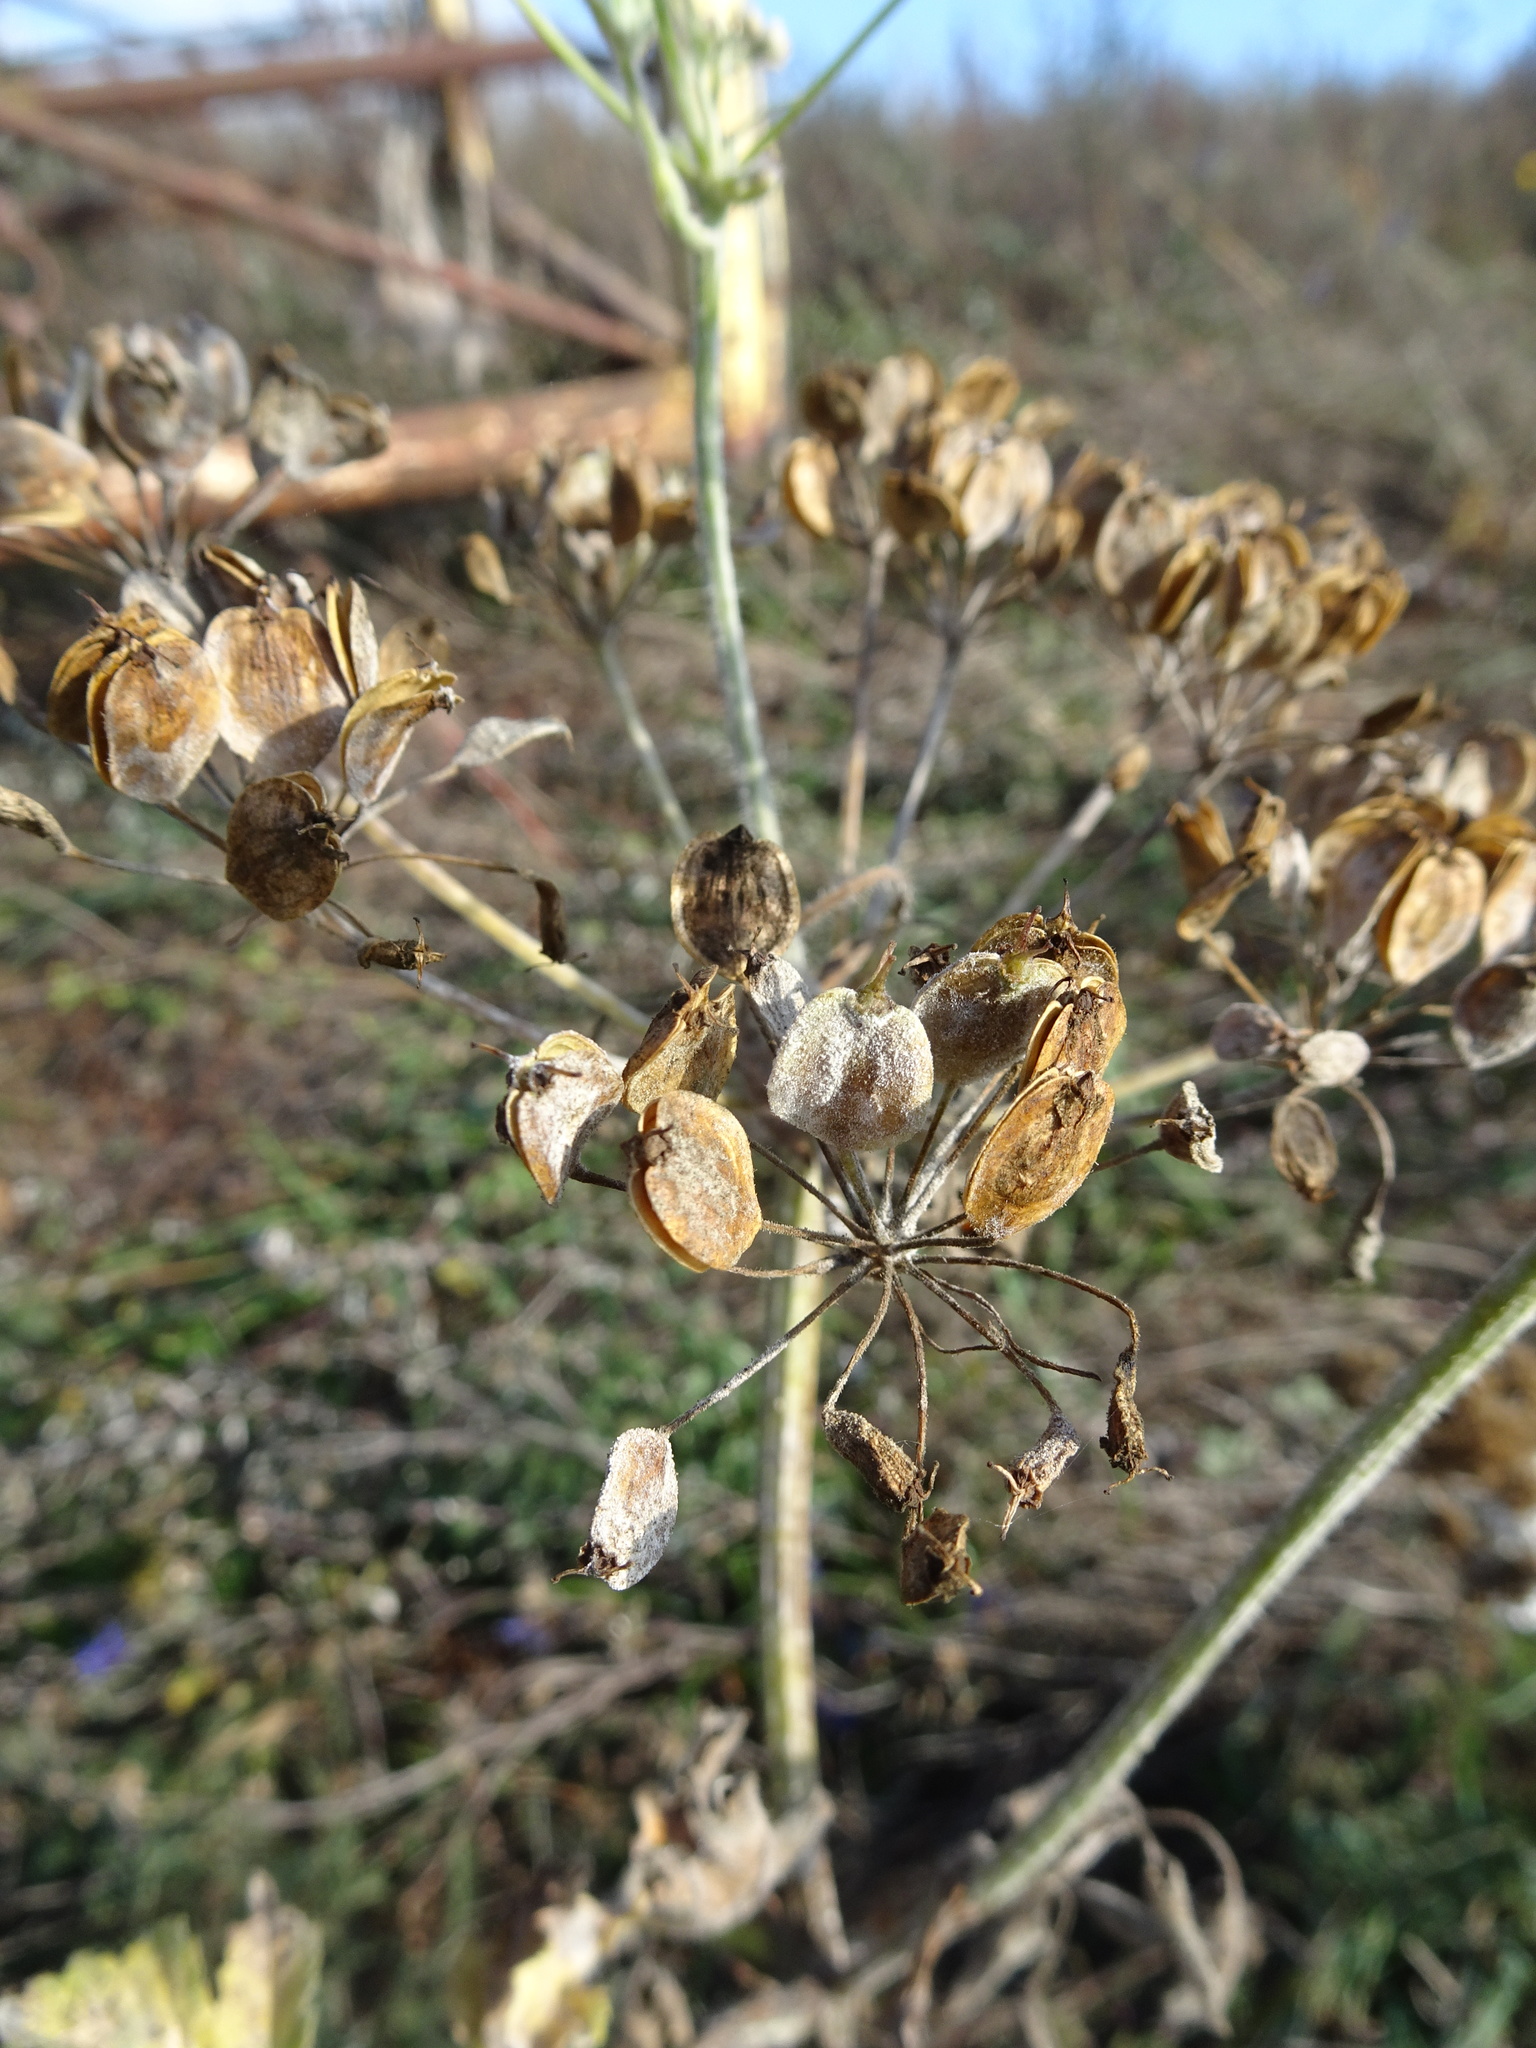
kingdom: Plantae
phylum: Tracheophyta
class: Magnoliopsida
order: Apiales
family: Apiaceae
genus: Heracleum
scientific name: Heracleum sphondylium
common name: Hogweed
